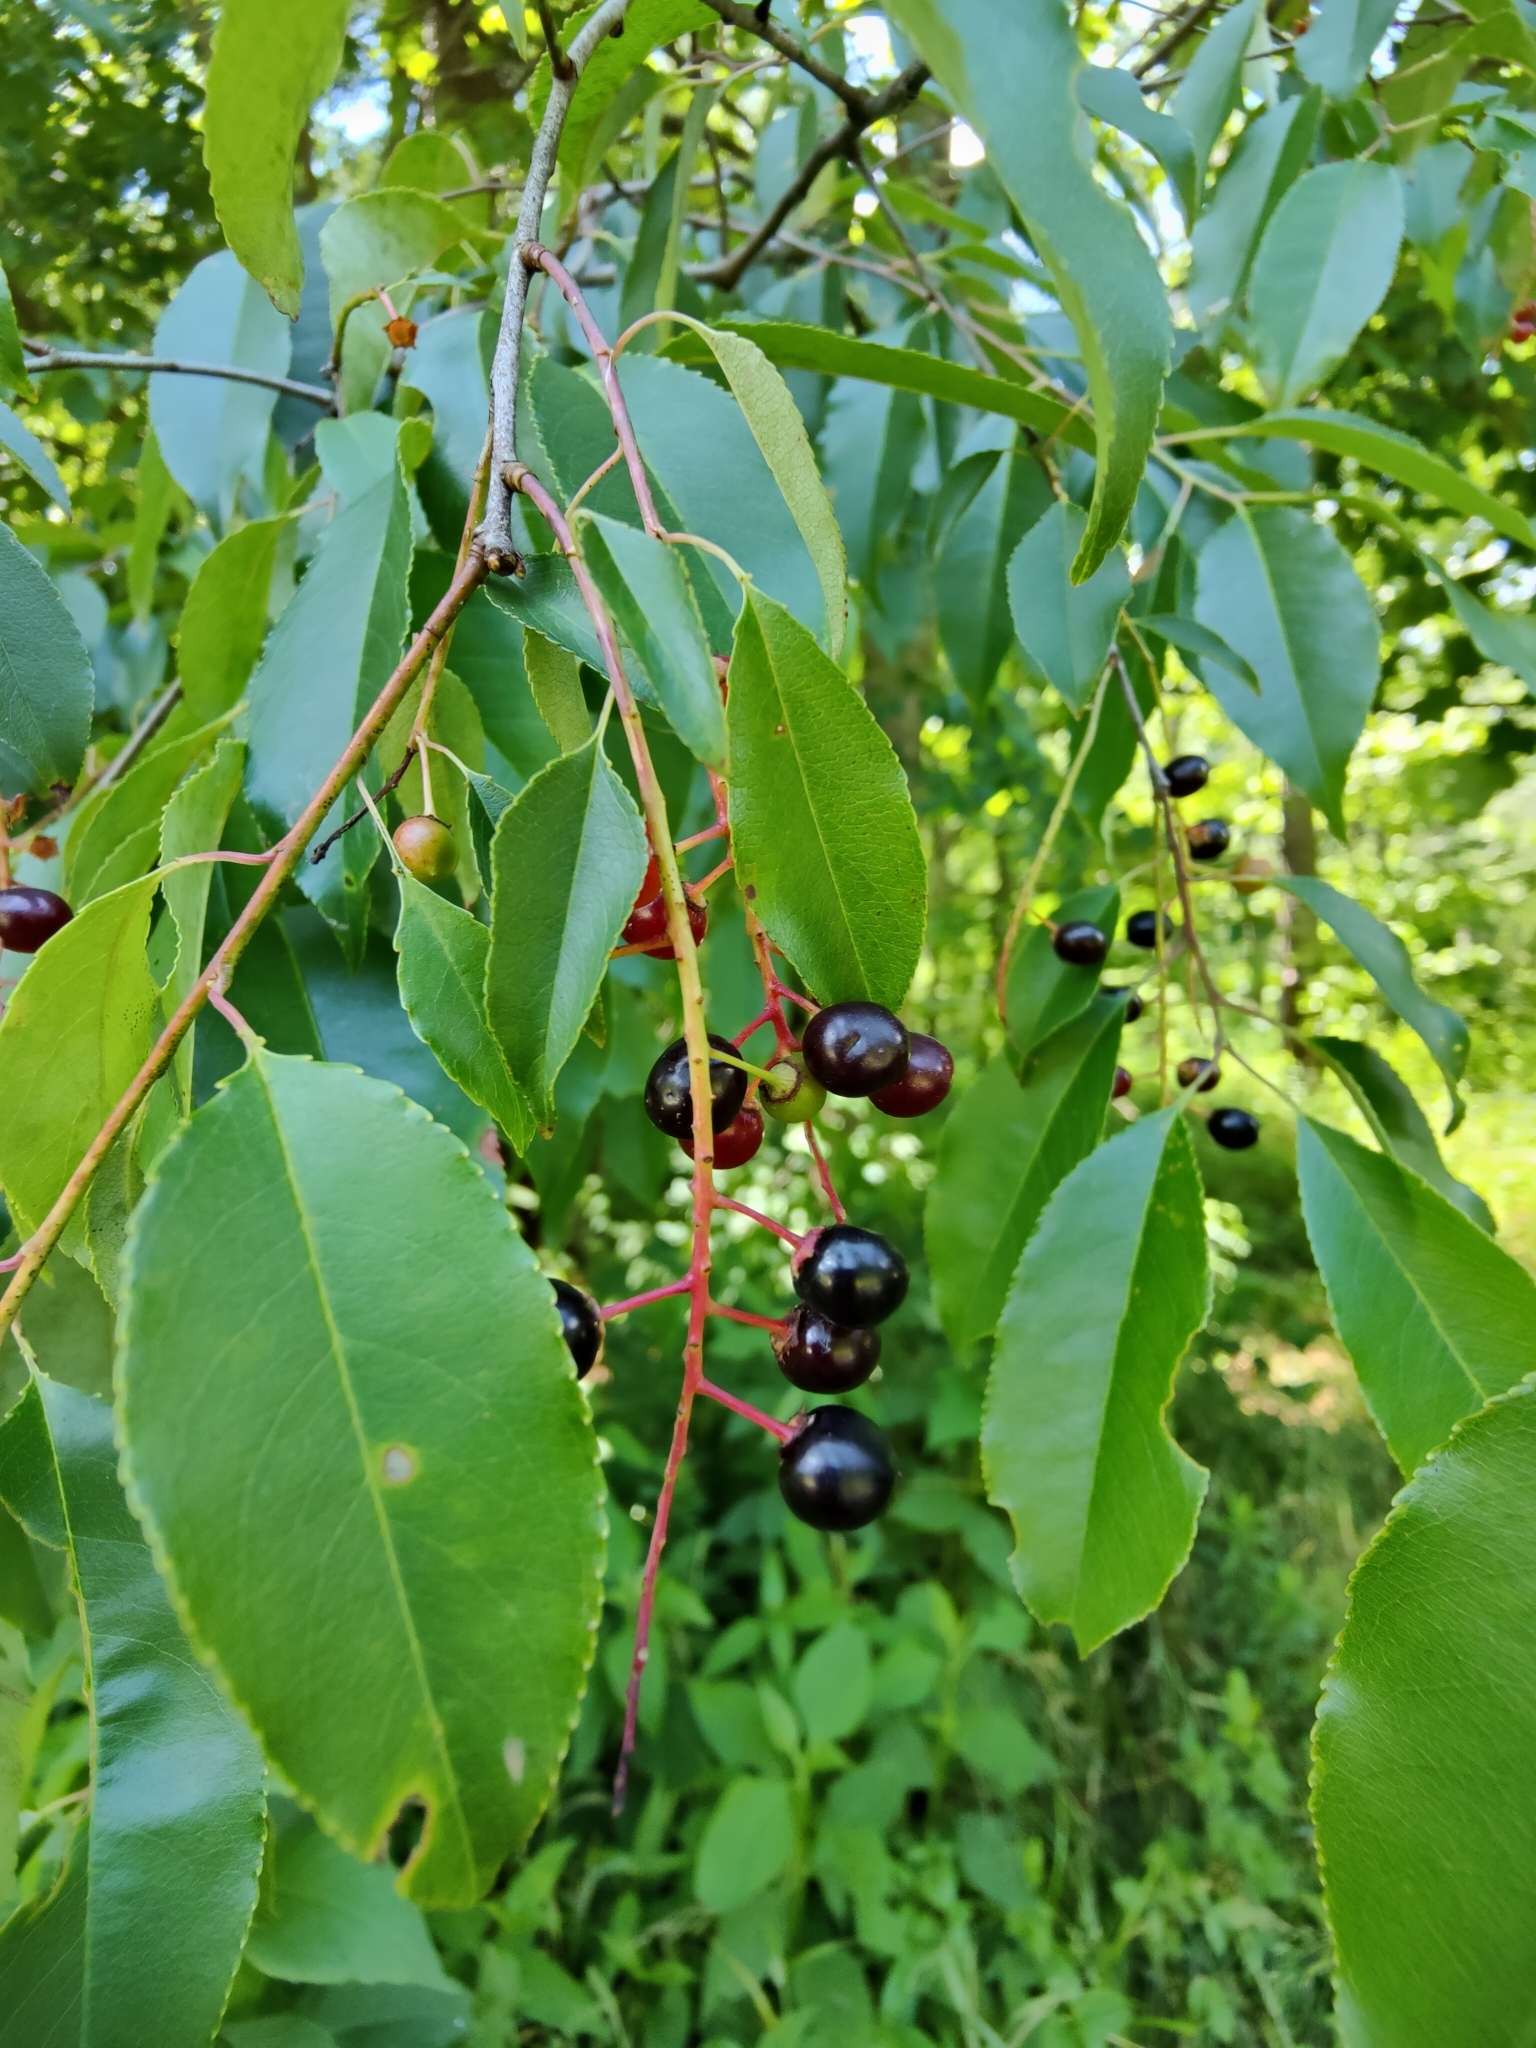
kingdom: Plantae
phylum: Tracheophyta
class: Magnoliopsida
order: Rosales
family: Rosaceae
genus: Prunus
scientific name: Prunus serotina
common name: Black cherry
